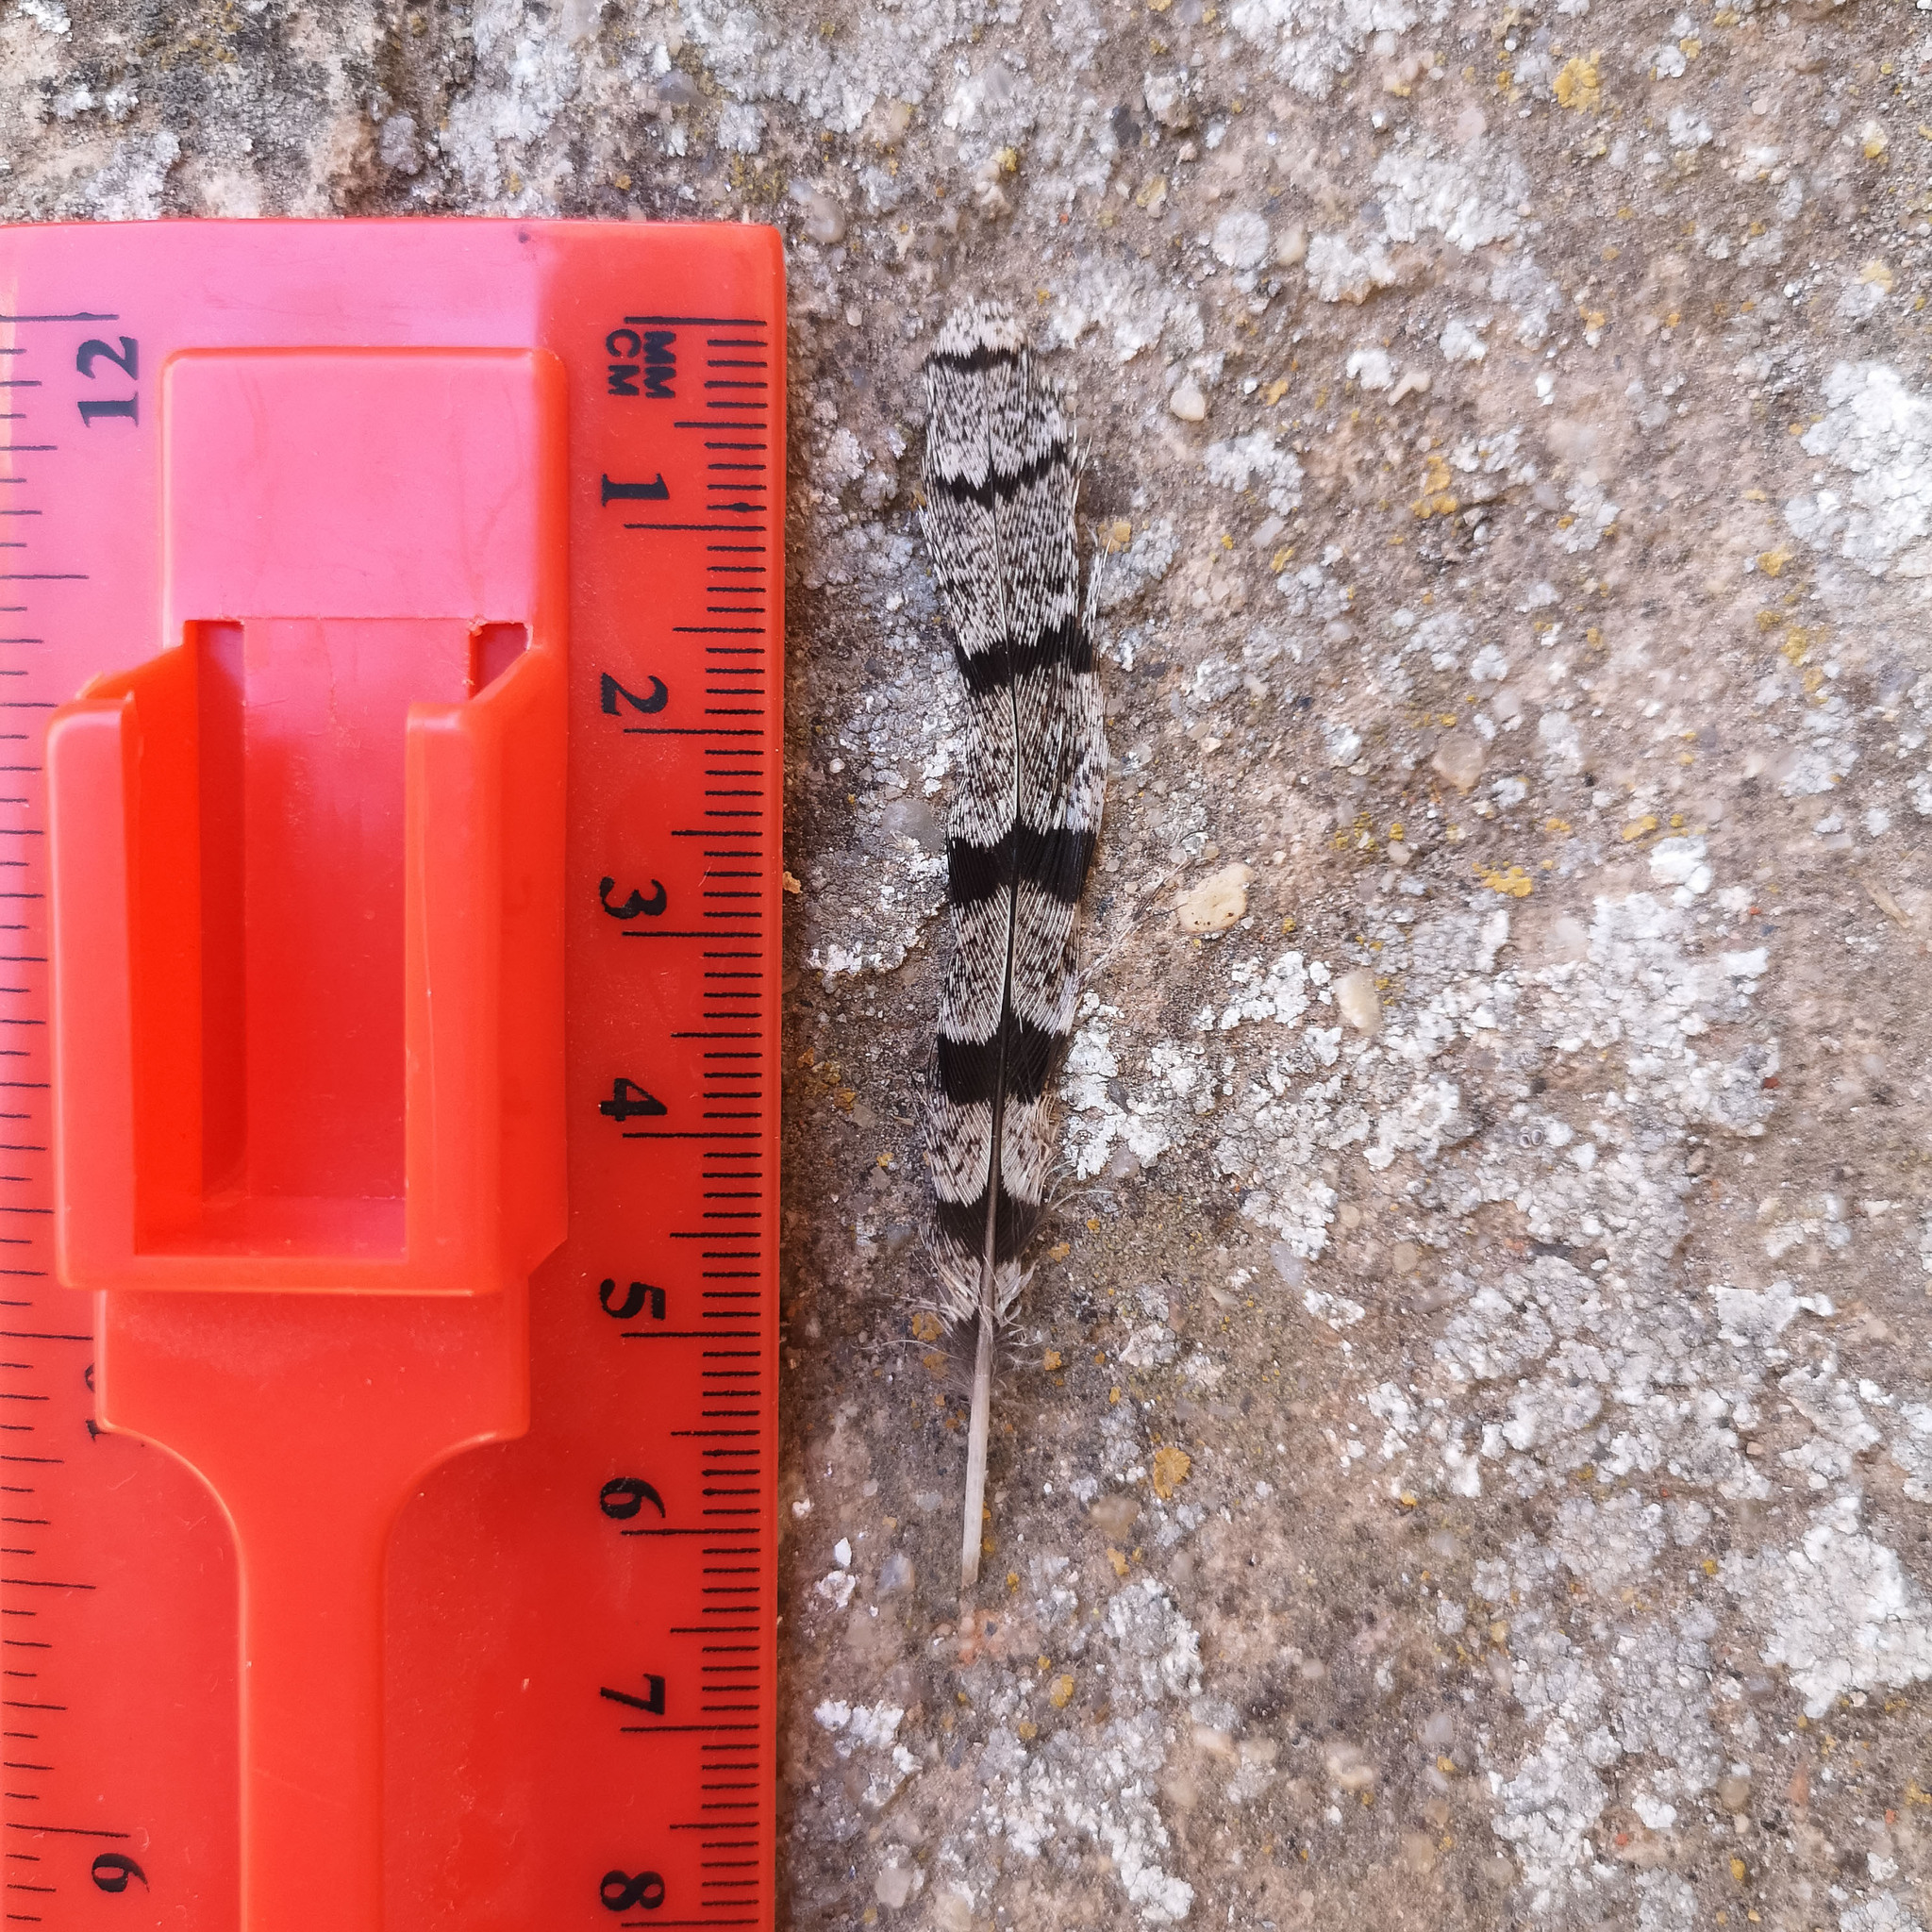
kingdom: Animalia
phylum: Chordata
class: Aves
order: Piciformes
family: Picidae
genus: Jynx
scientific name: Jynx torquilla
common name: Eurasian wryneck
